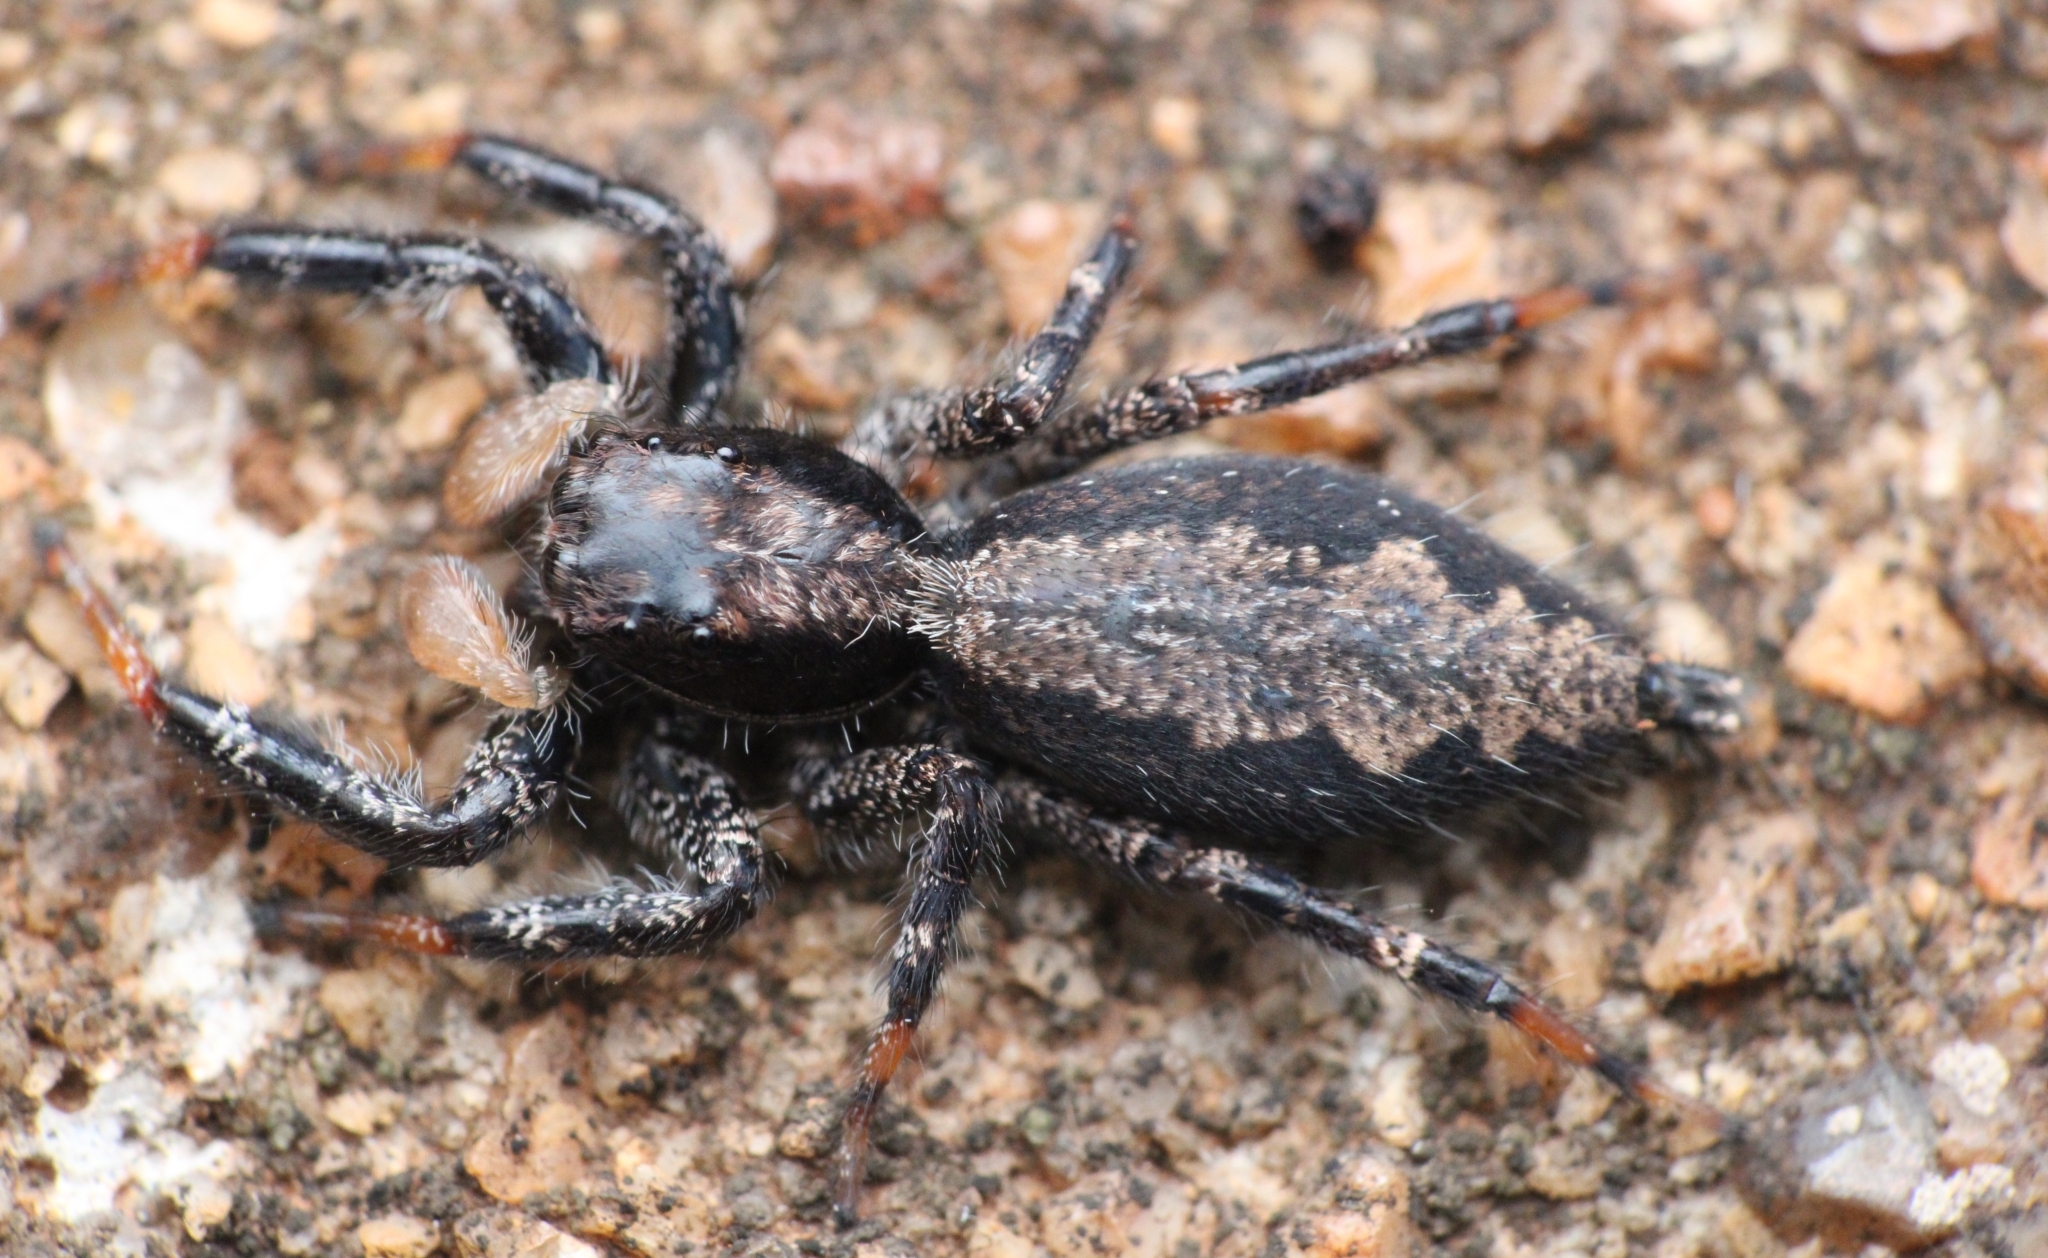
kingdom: Animalia
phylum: Arthropoda
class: Arachnida
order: Araneae
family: Salticidae
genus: Holcolaetis
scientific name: Holcolaetis zuluensis
